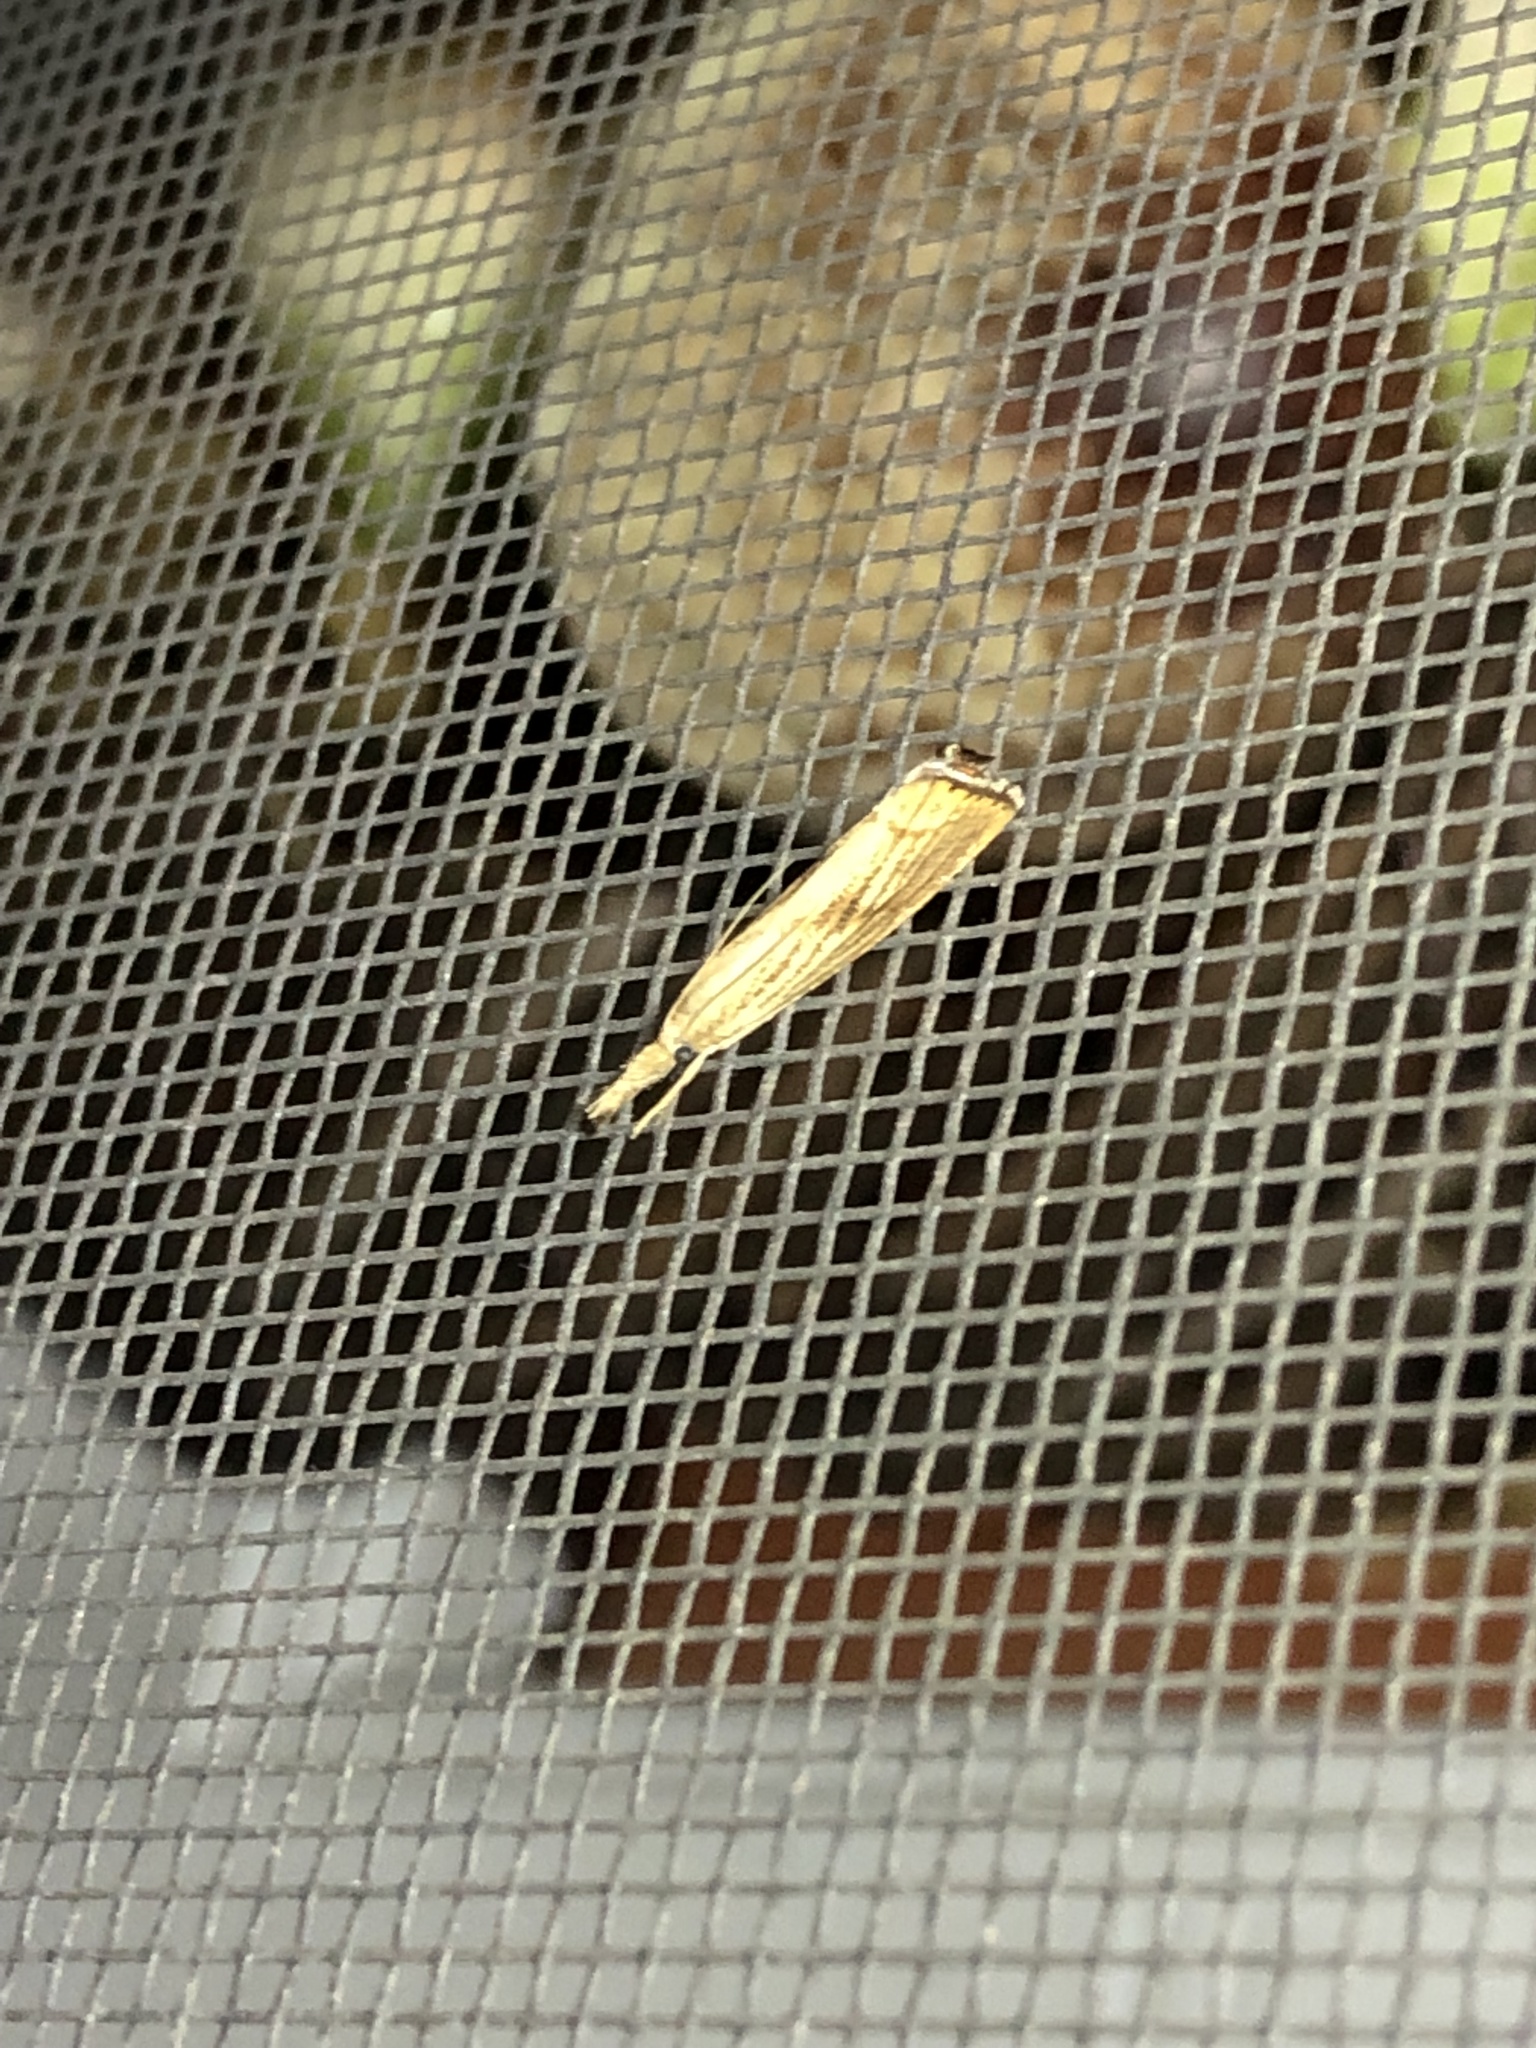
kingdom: Animalia
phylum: Arthropoda
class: Insecta
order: Lepidoptera
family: Crambidae
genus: Agriphila
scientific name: Agriphila ruricolellus
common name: Lesser vagabond sod webworm
